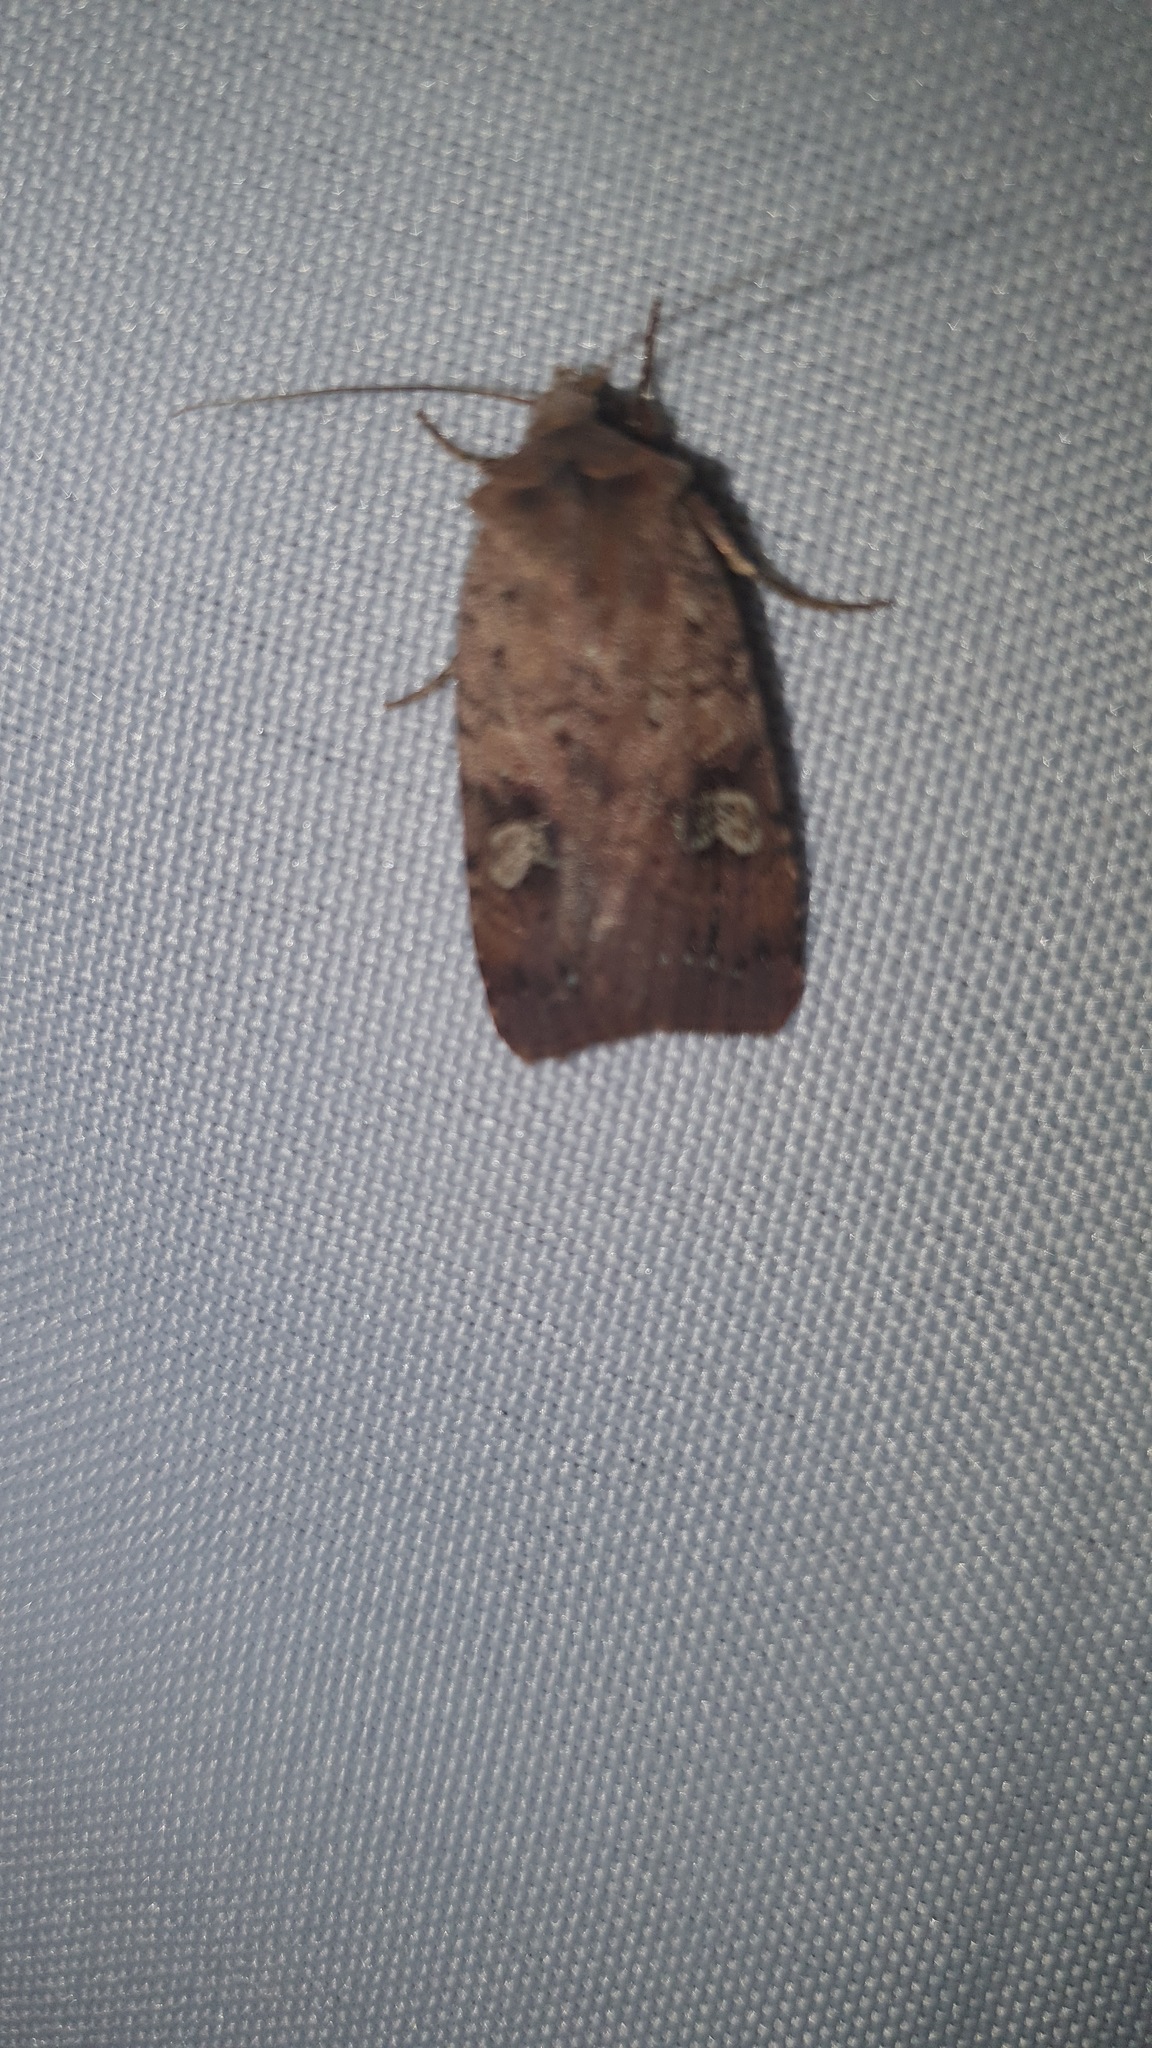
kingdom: Animalia
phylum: Arthropoda
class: Insecta
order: Lepidoptera
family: Noctuidae
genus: Xestia
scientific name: Xestia xanthographa
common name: Square-spot rustic
